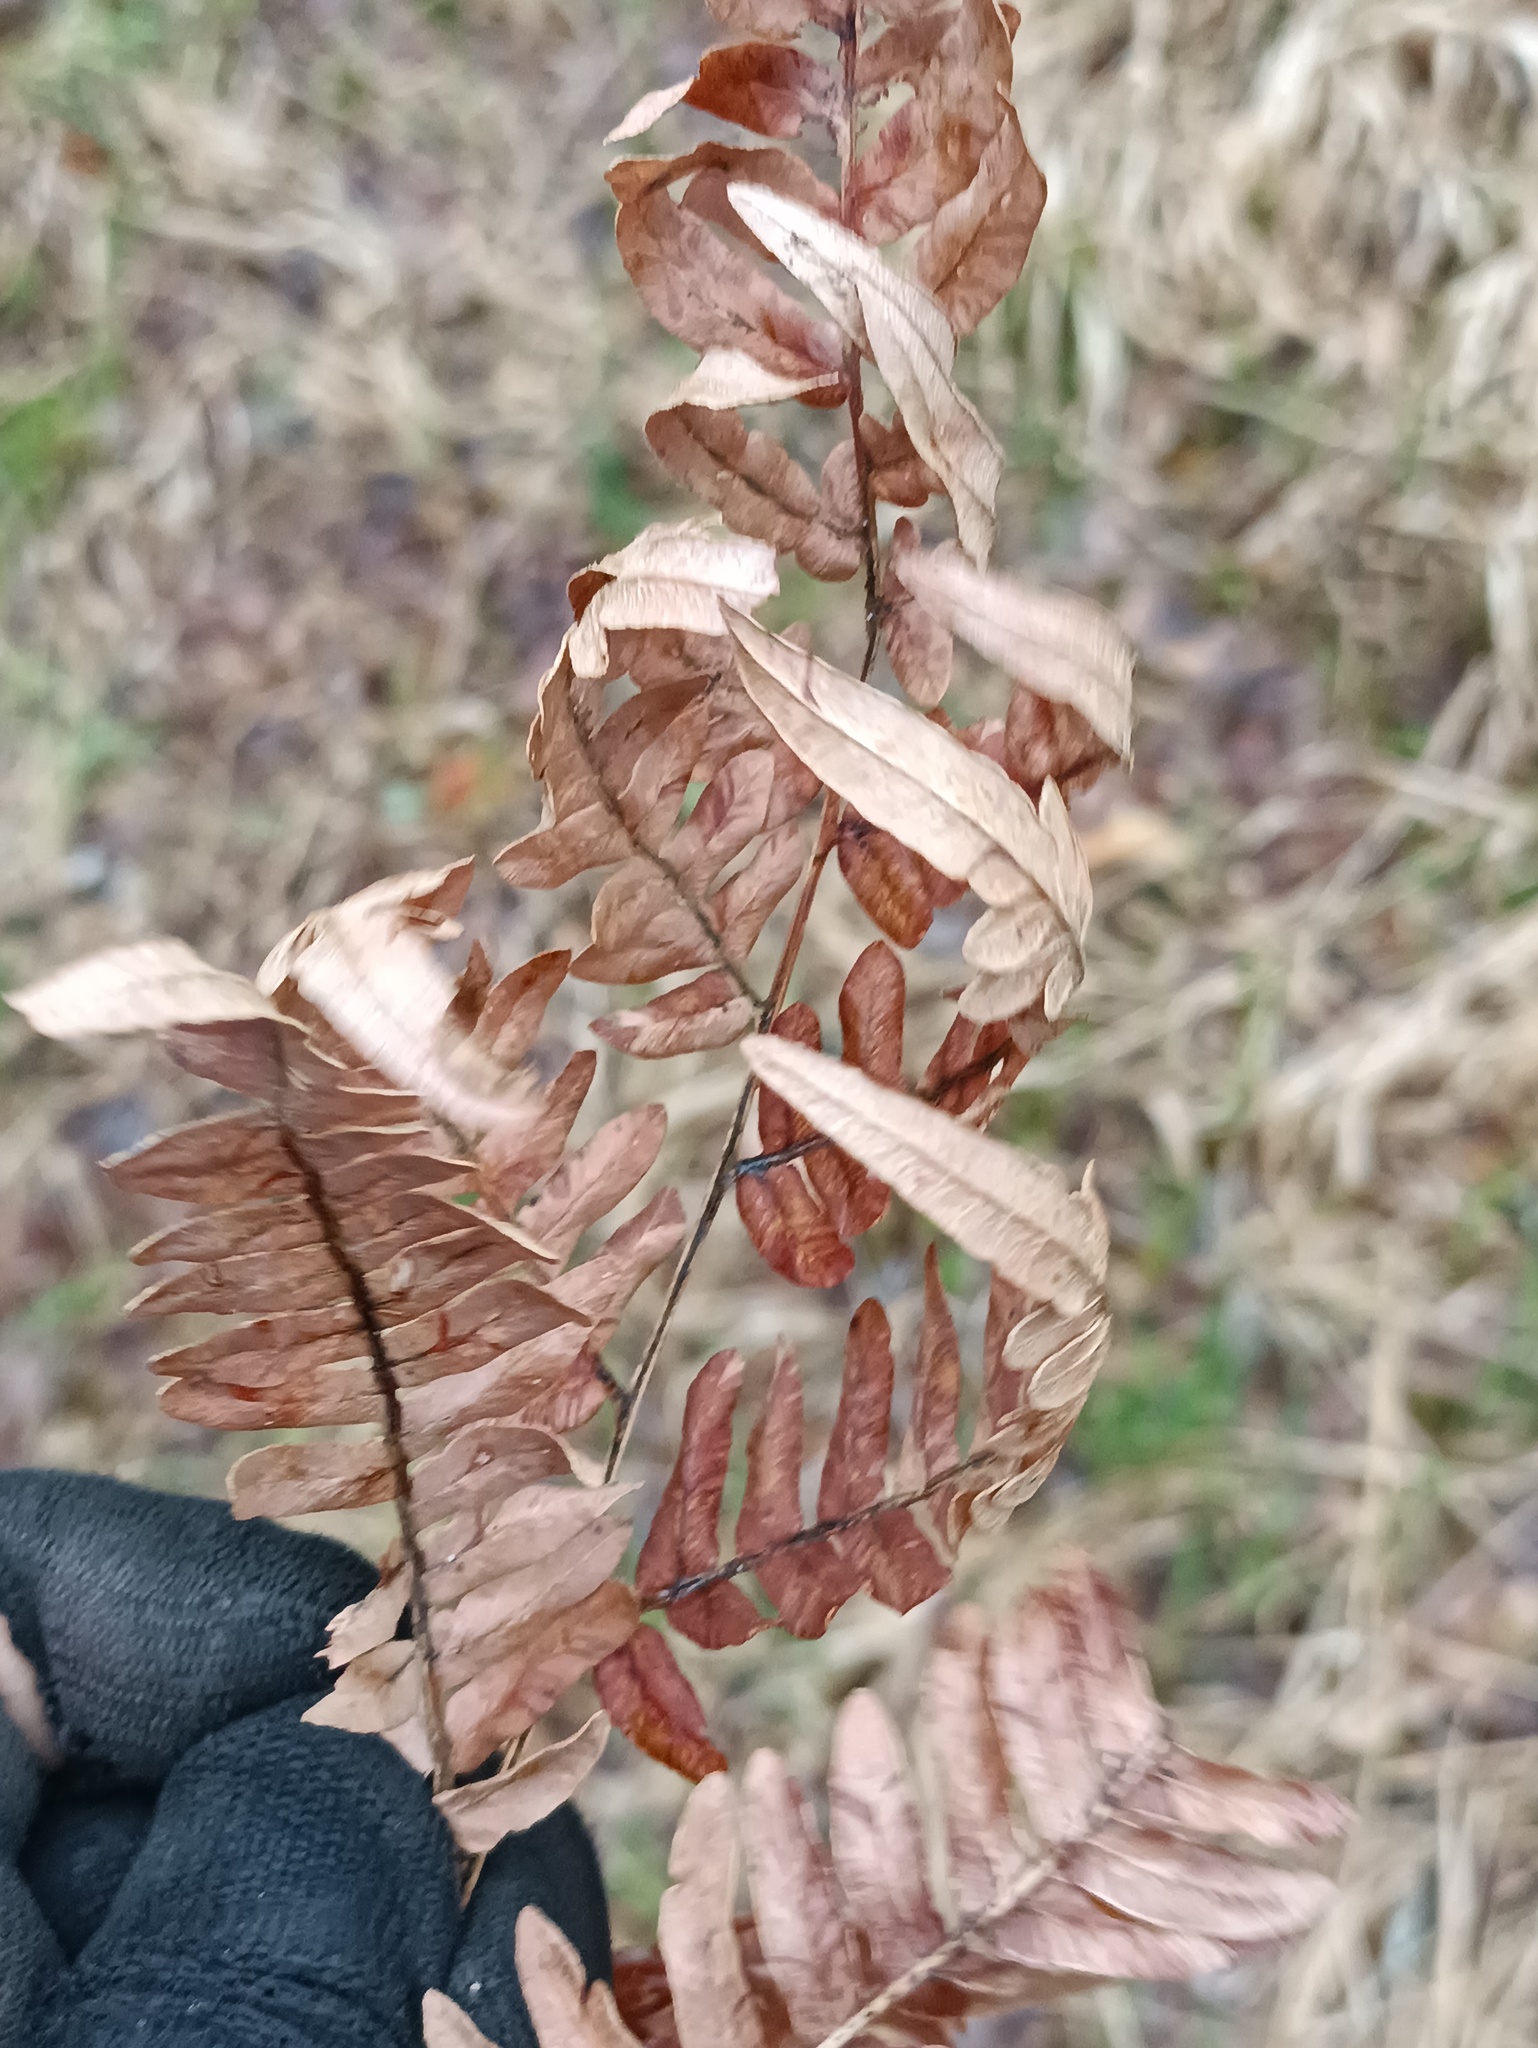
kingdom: Plantae
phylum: Tracheophyta
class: Polypodiopsida
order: Polypodiales
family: Dennstaedtiaceae
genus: Pteridium
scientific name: Pteridium aquilinum
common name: Bracken
